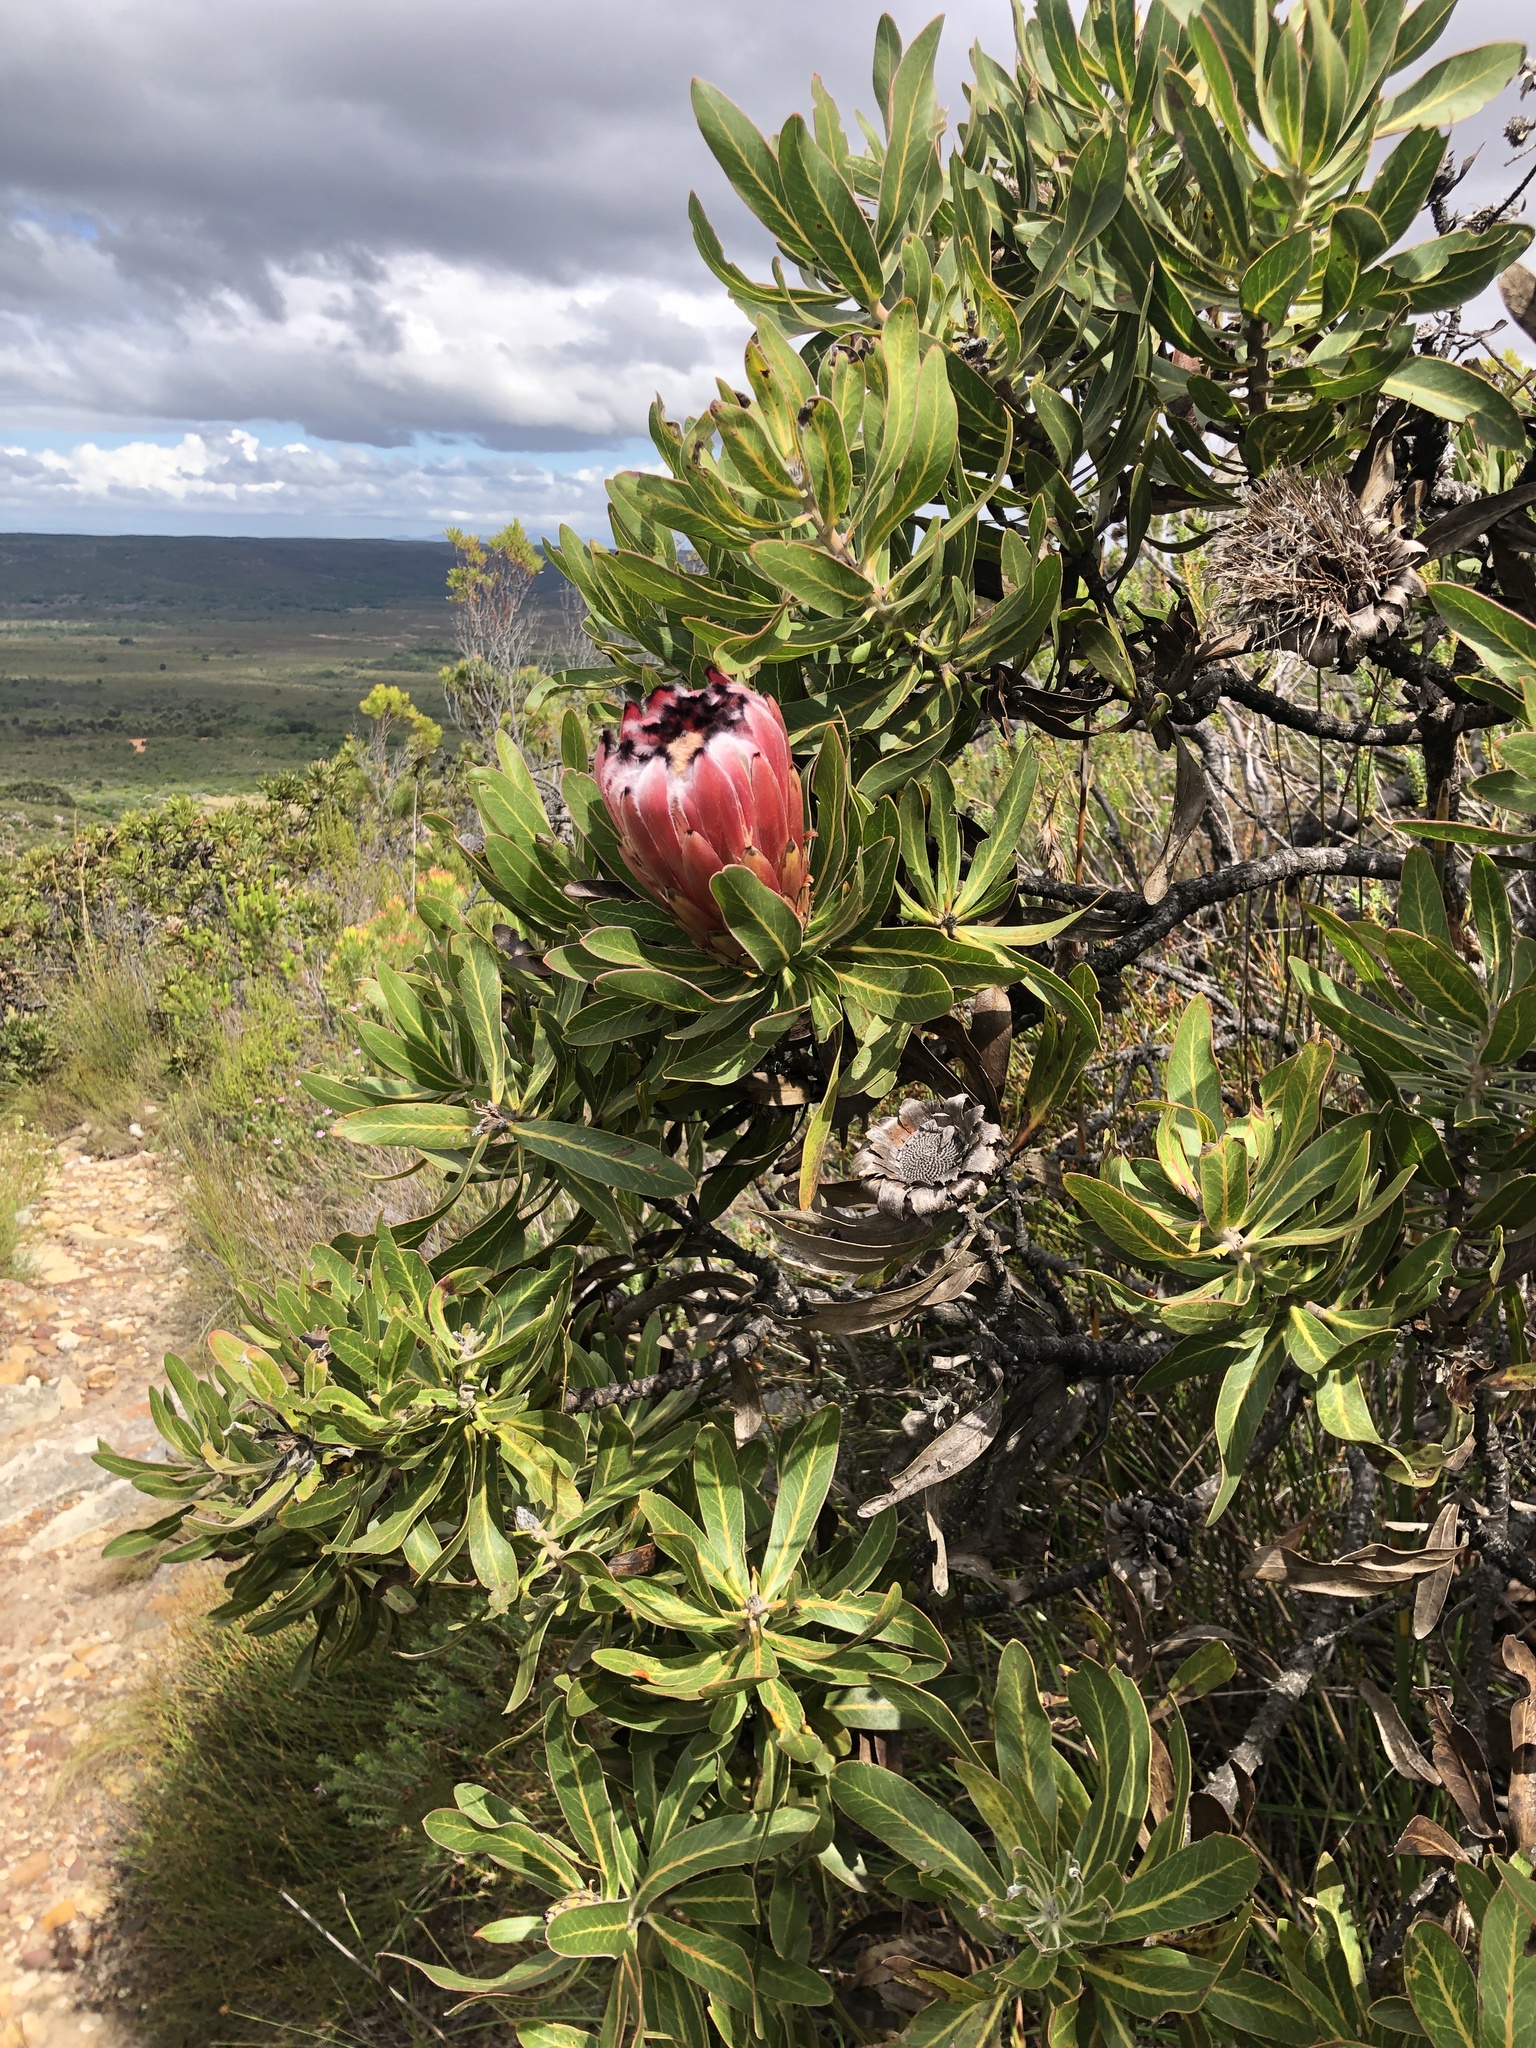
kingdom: Plantae
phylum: Tracheophyta
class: Magnoliopsida
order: Proteales
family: Proteaceae
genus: Protea
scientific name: Protea neriifolia
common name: Blue sugarbush
